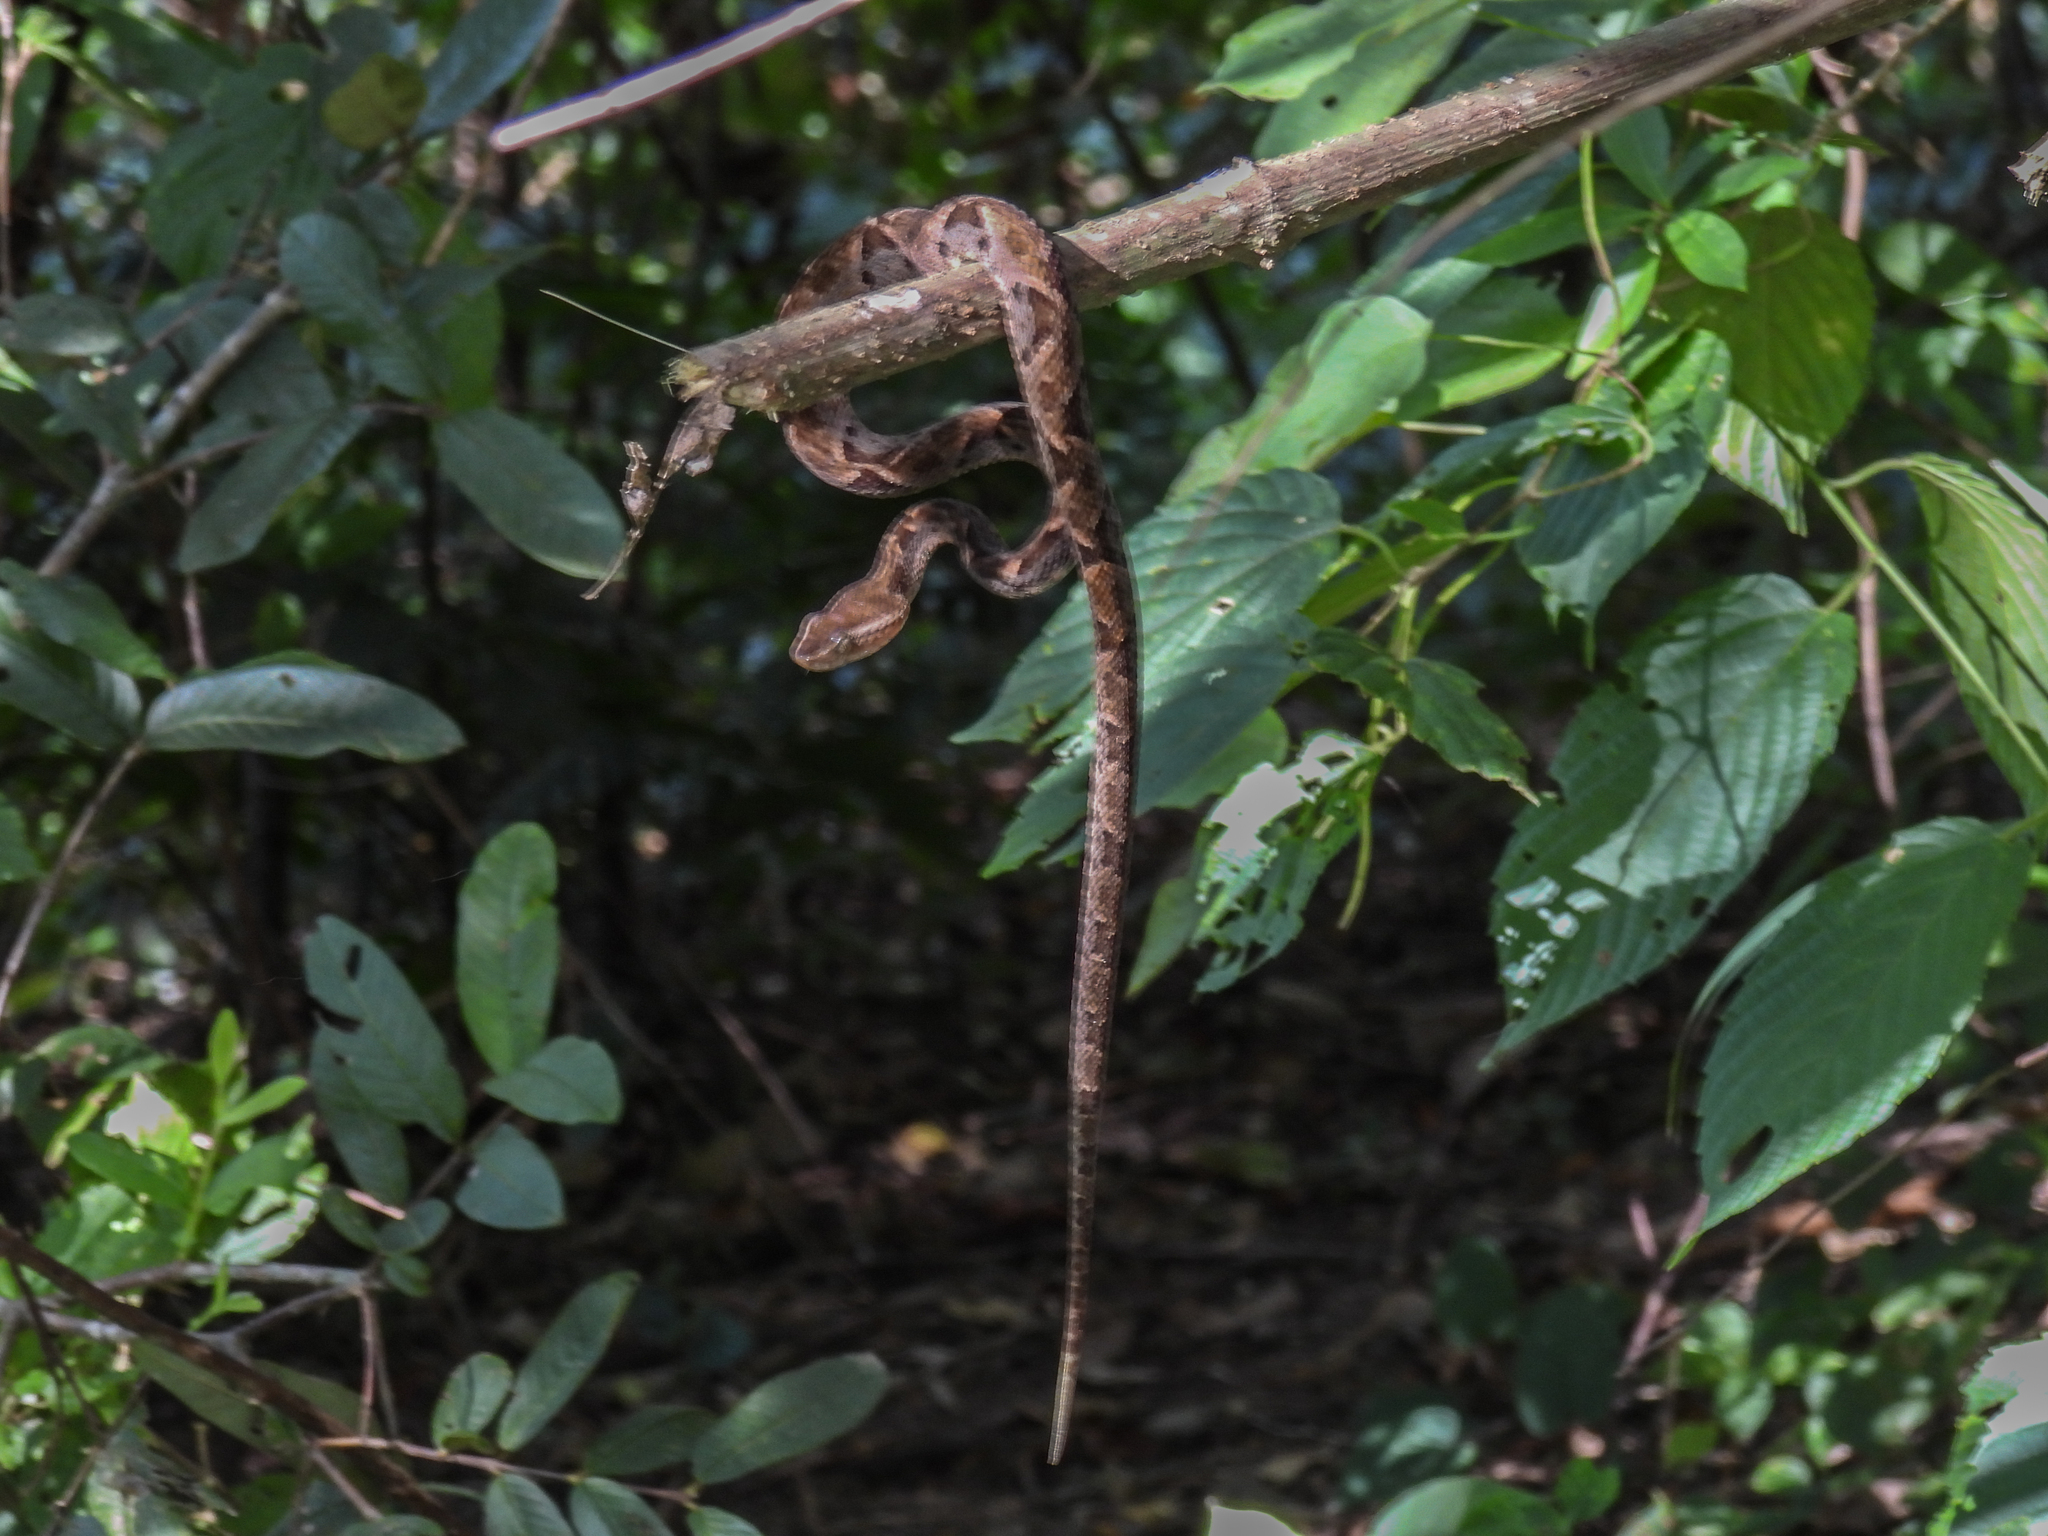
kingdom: Animalia
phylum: Chordata
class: Squamata
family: Viperidae
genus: Bothrops
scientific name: Bothrops asper
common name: Terciopelo
